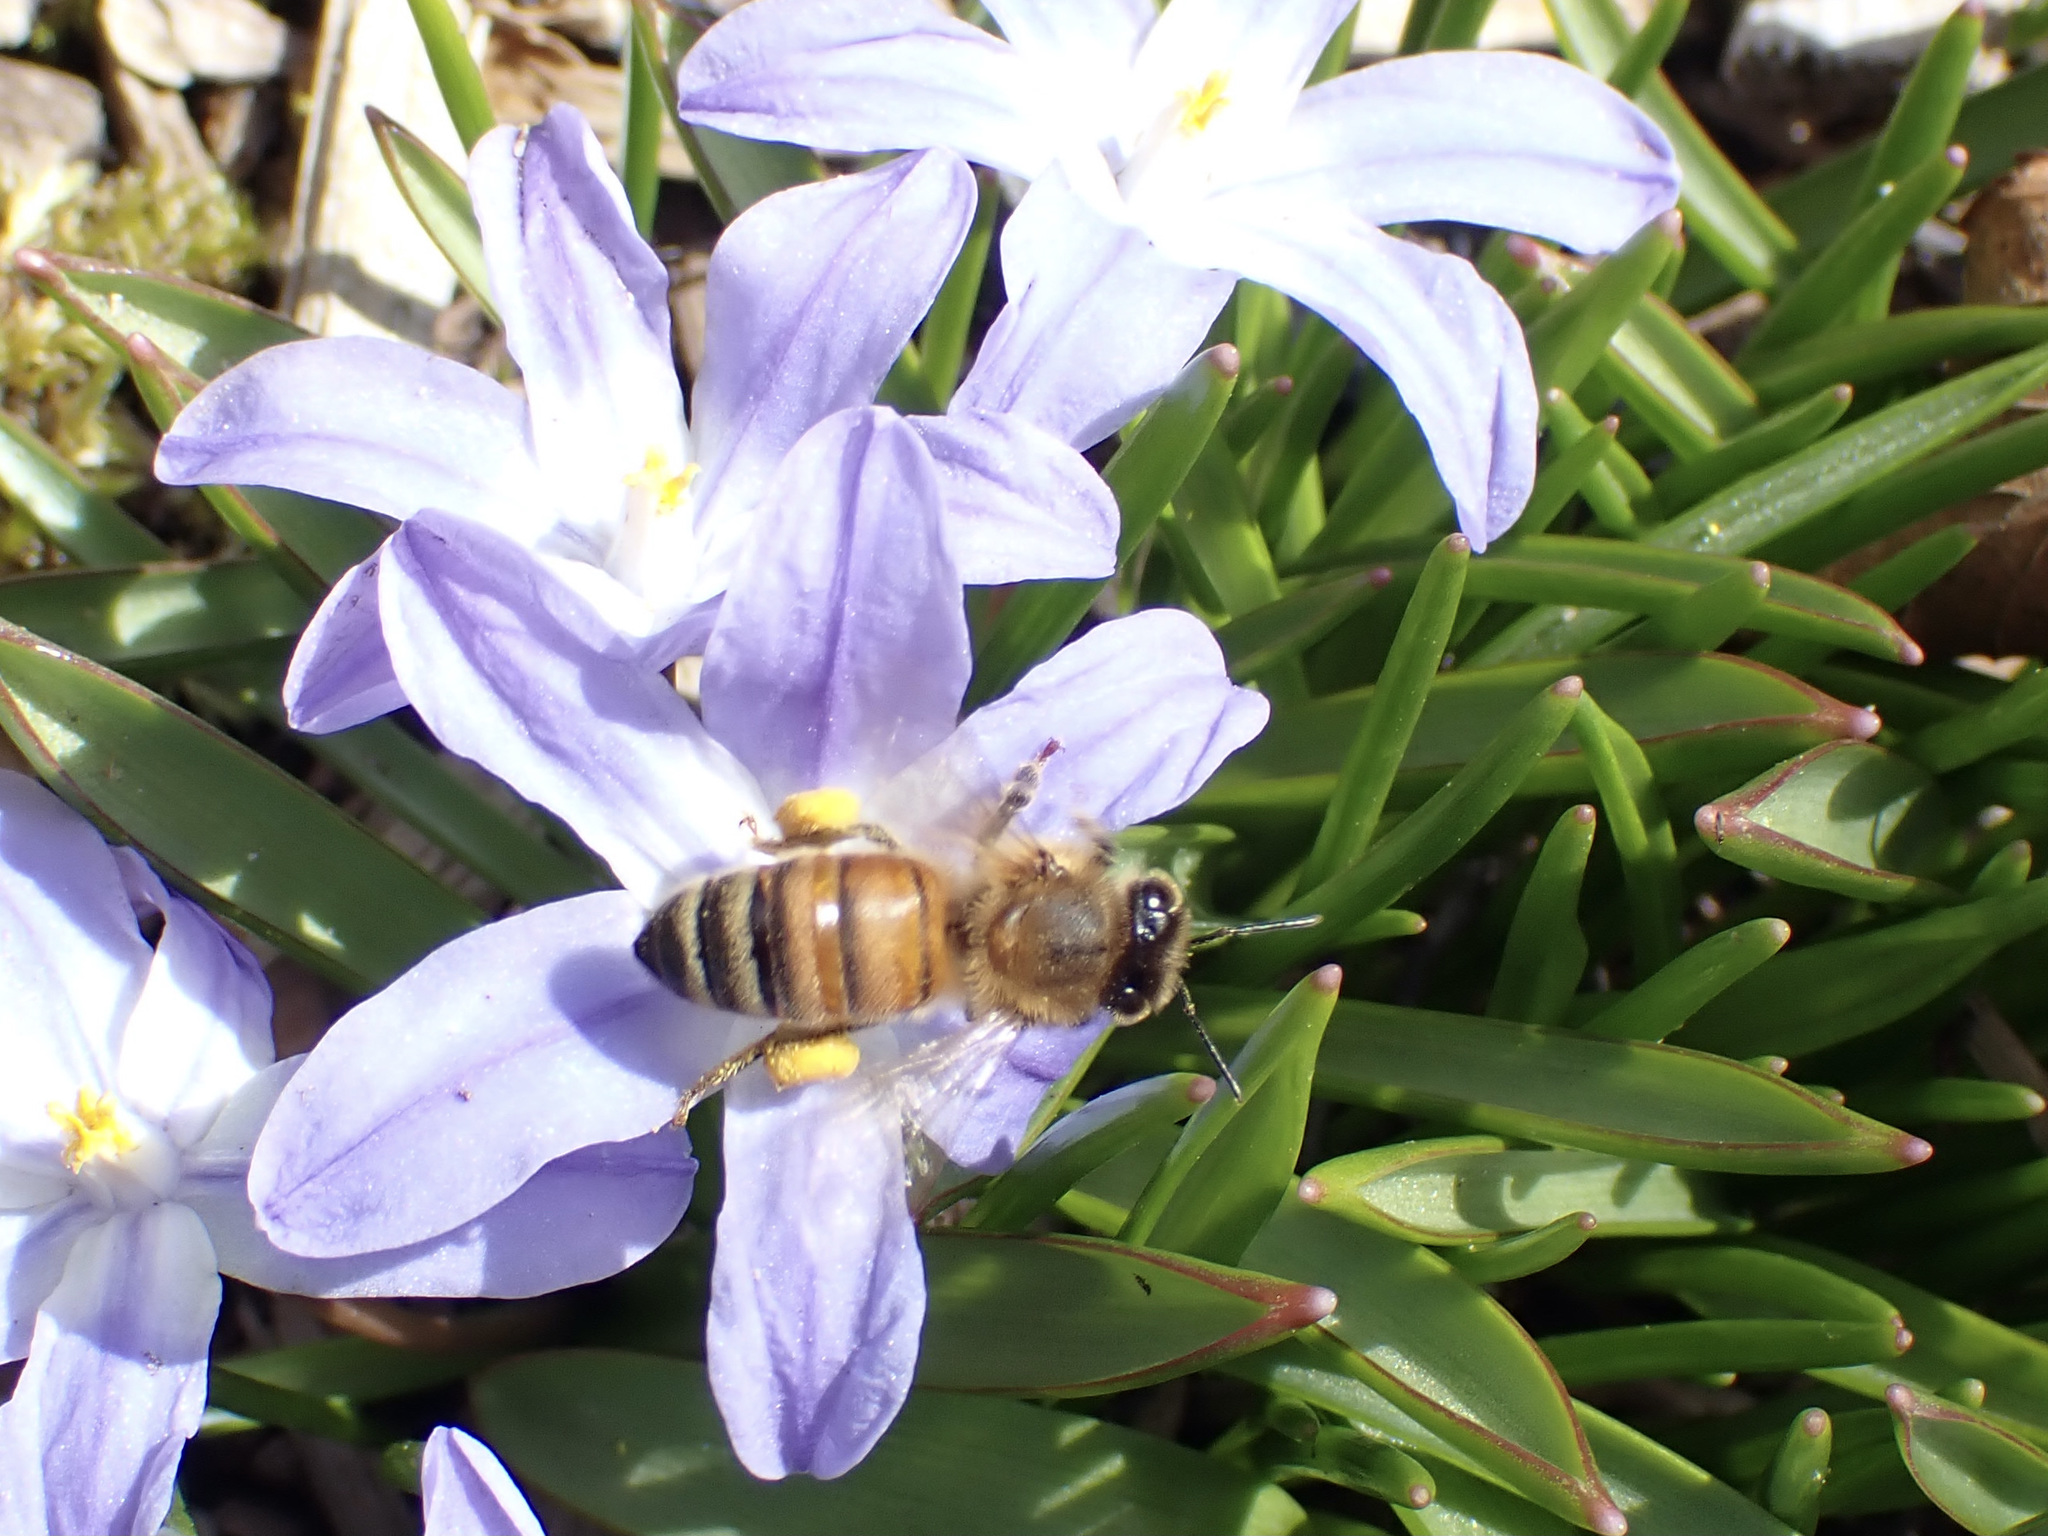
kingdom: Animalia
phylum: Arthropoda
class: Insecta
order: Hymenoptera
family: Apidae
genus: Apis
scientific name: Apis mellifera
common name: Honey bee
